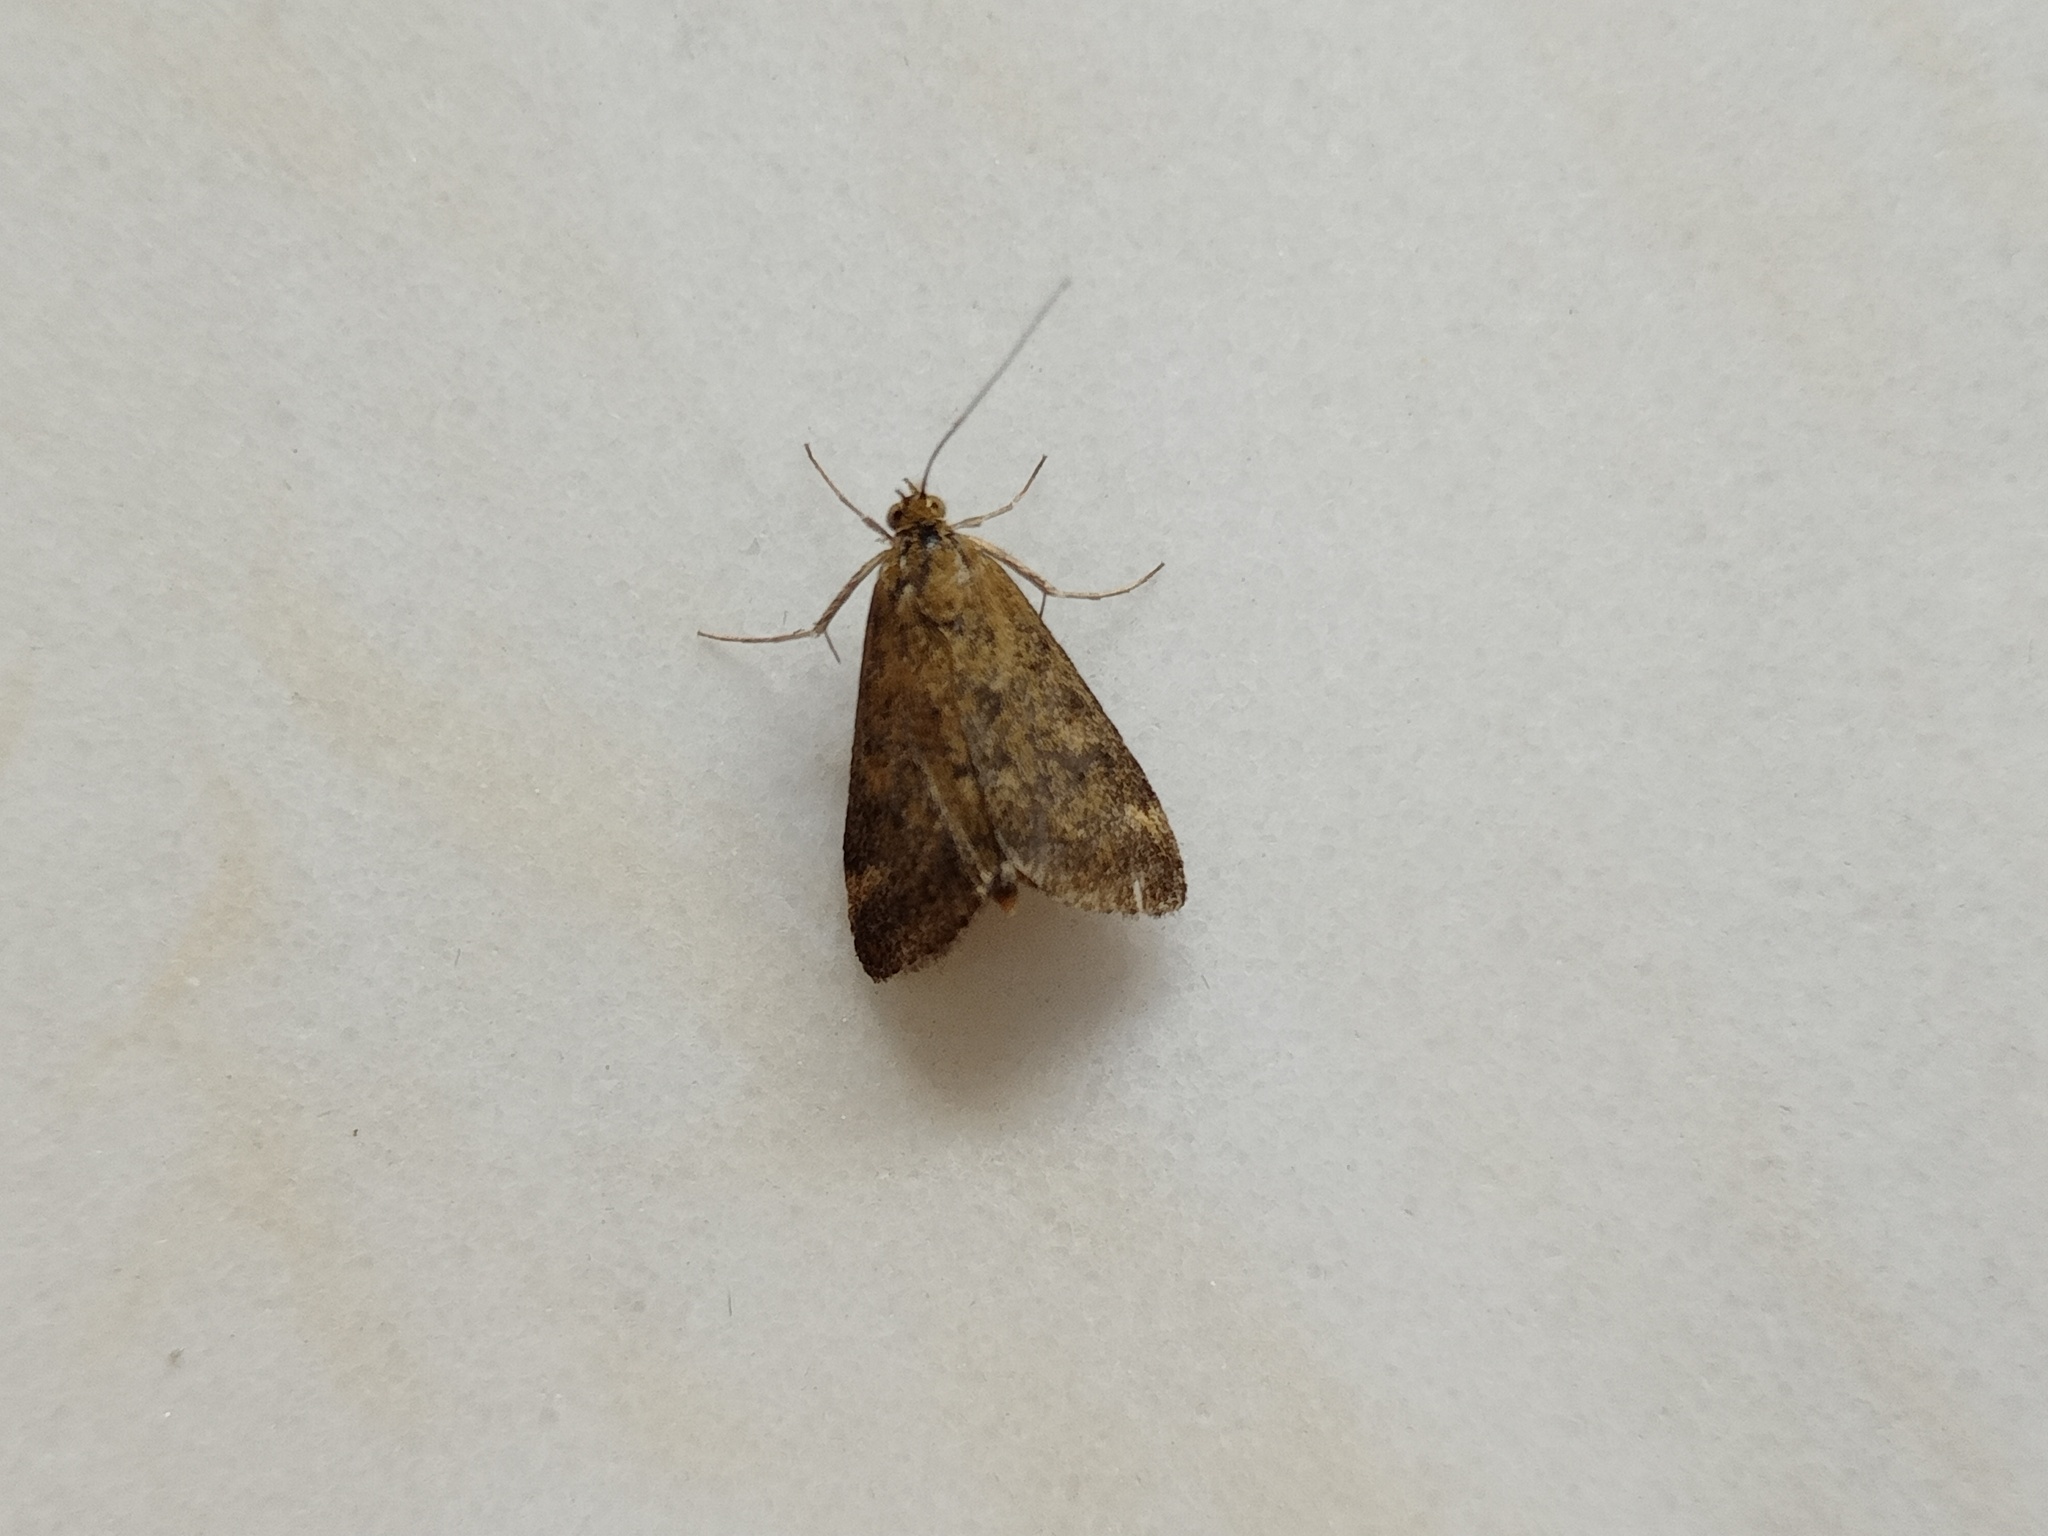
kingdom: Animalia
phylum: Arthropoda
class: Insecta
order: Lepidoptera
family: Crambidae
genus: Pyrausta
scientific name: Pyrausta despicata
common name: Straw-barred pearl
